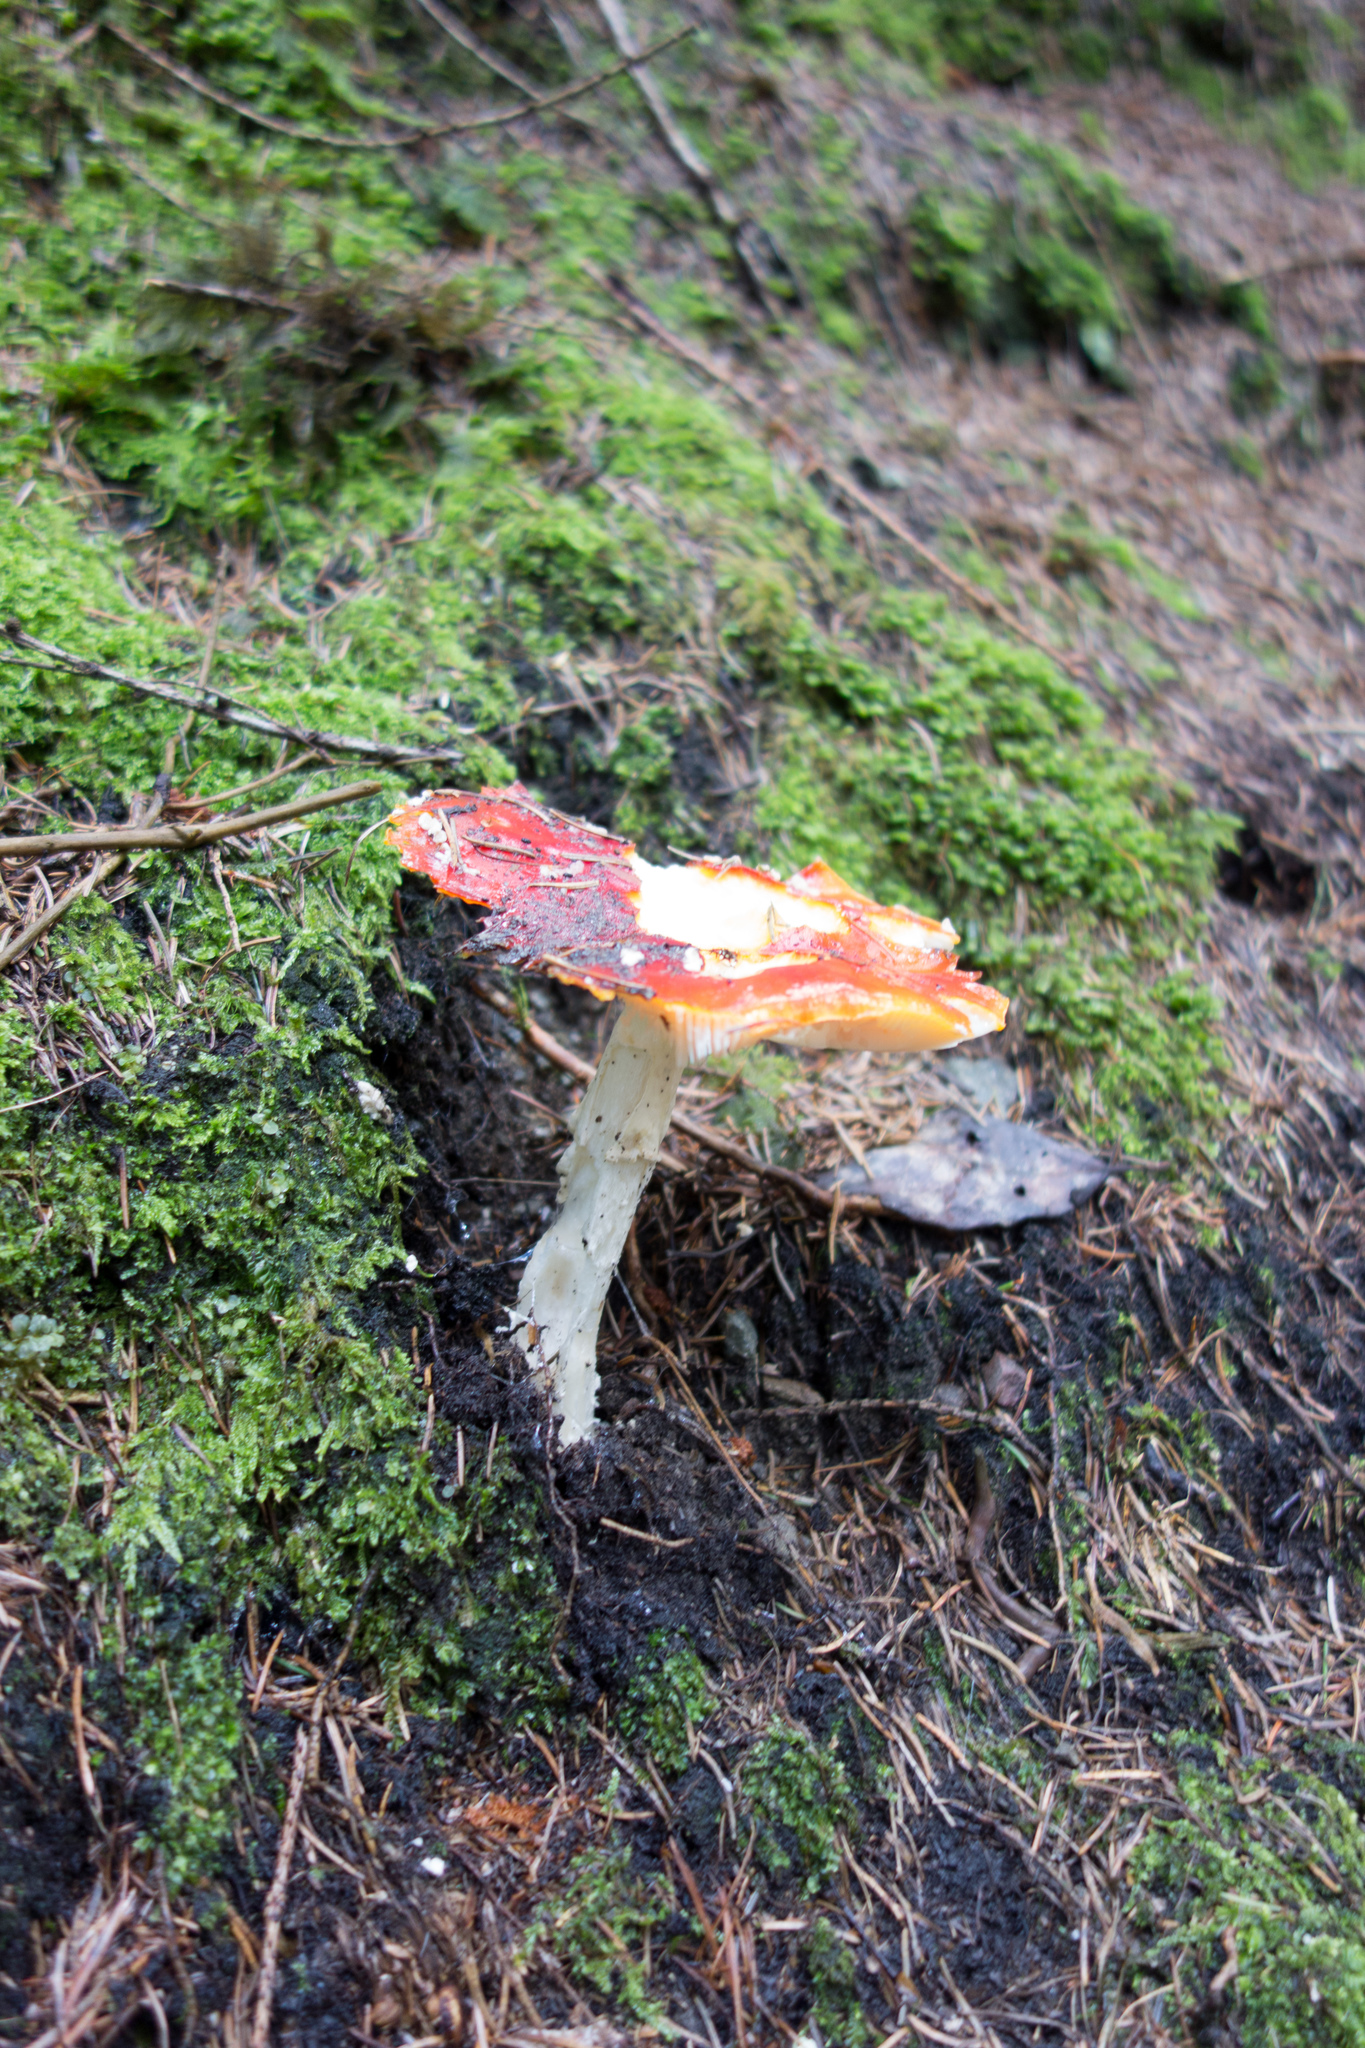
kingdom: Fungi
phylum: Basidiomycota
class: Agaricomycetes
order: Agaricales
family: Amanitaceae
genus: Amanita
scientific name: Amanita muscaria
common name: Fly agaric
